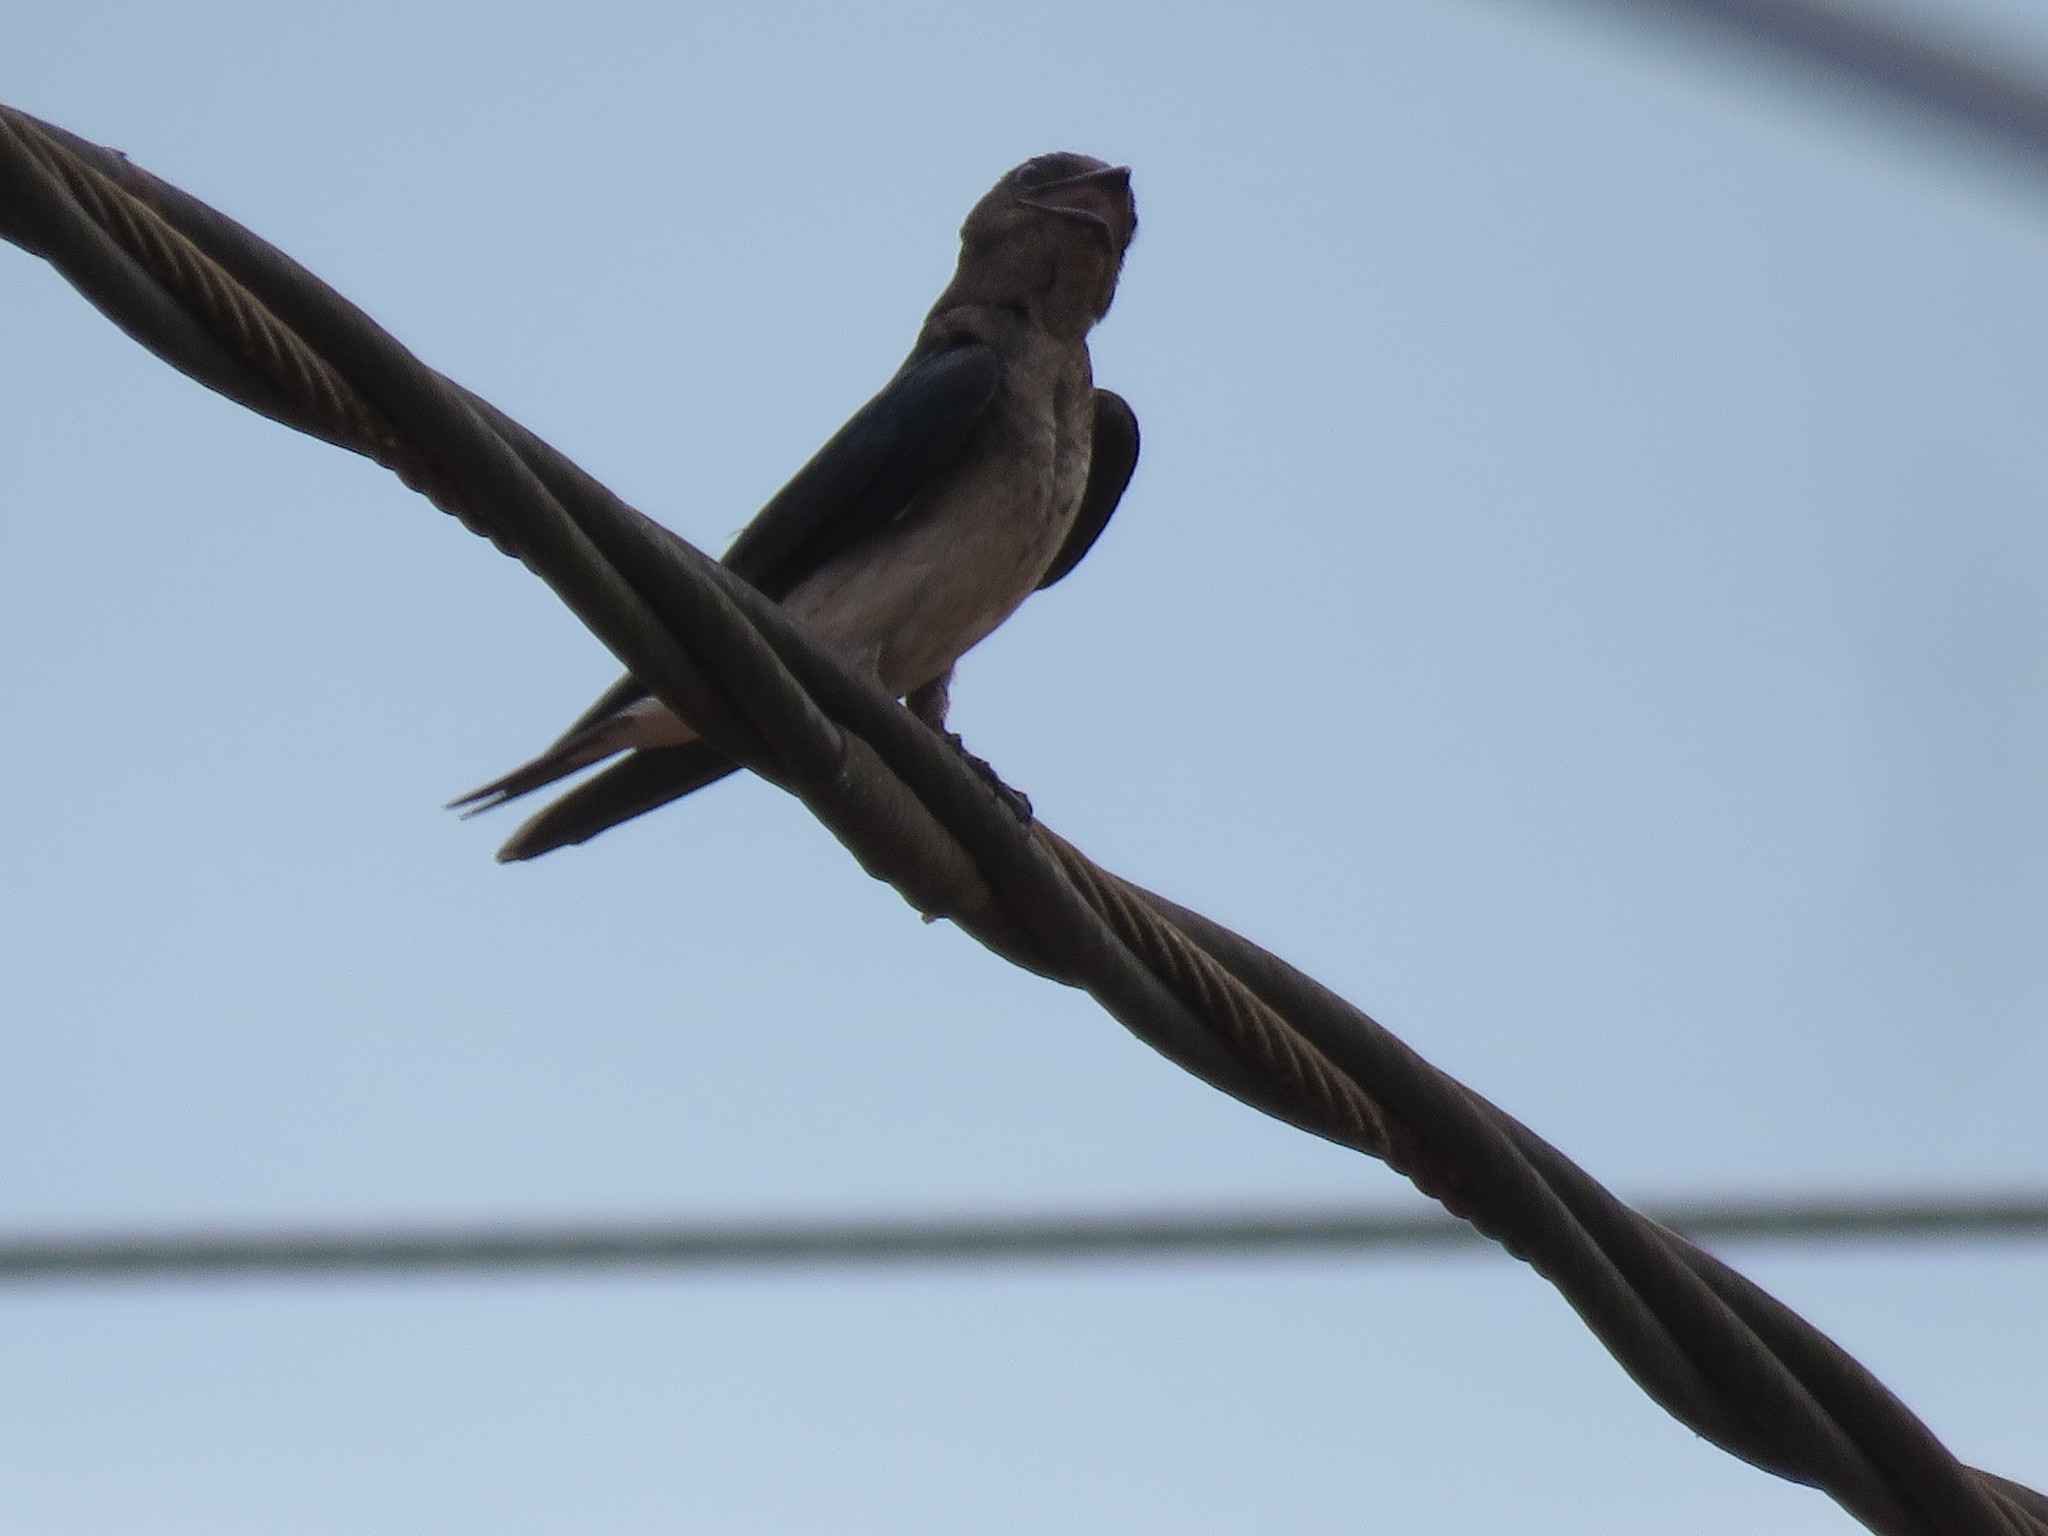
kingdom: Animalia
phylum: Chordata
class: Aves
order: Passeriformes
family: Hirundinidae
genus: Progne
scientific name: Progne chalybea
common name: Grey-breasted martin
